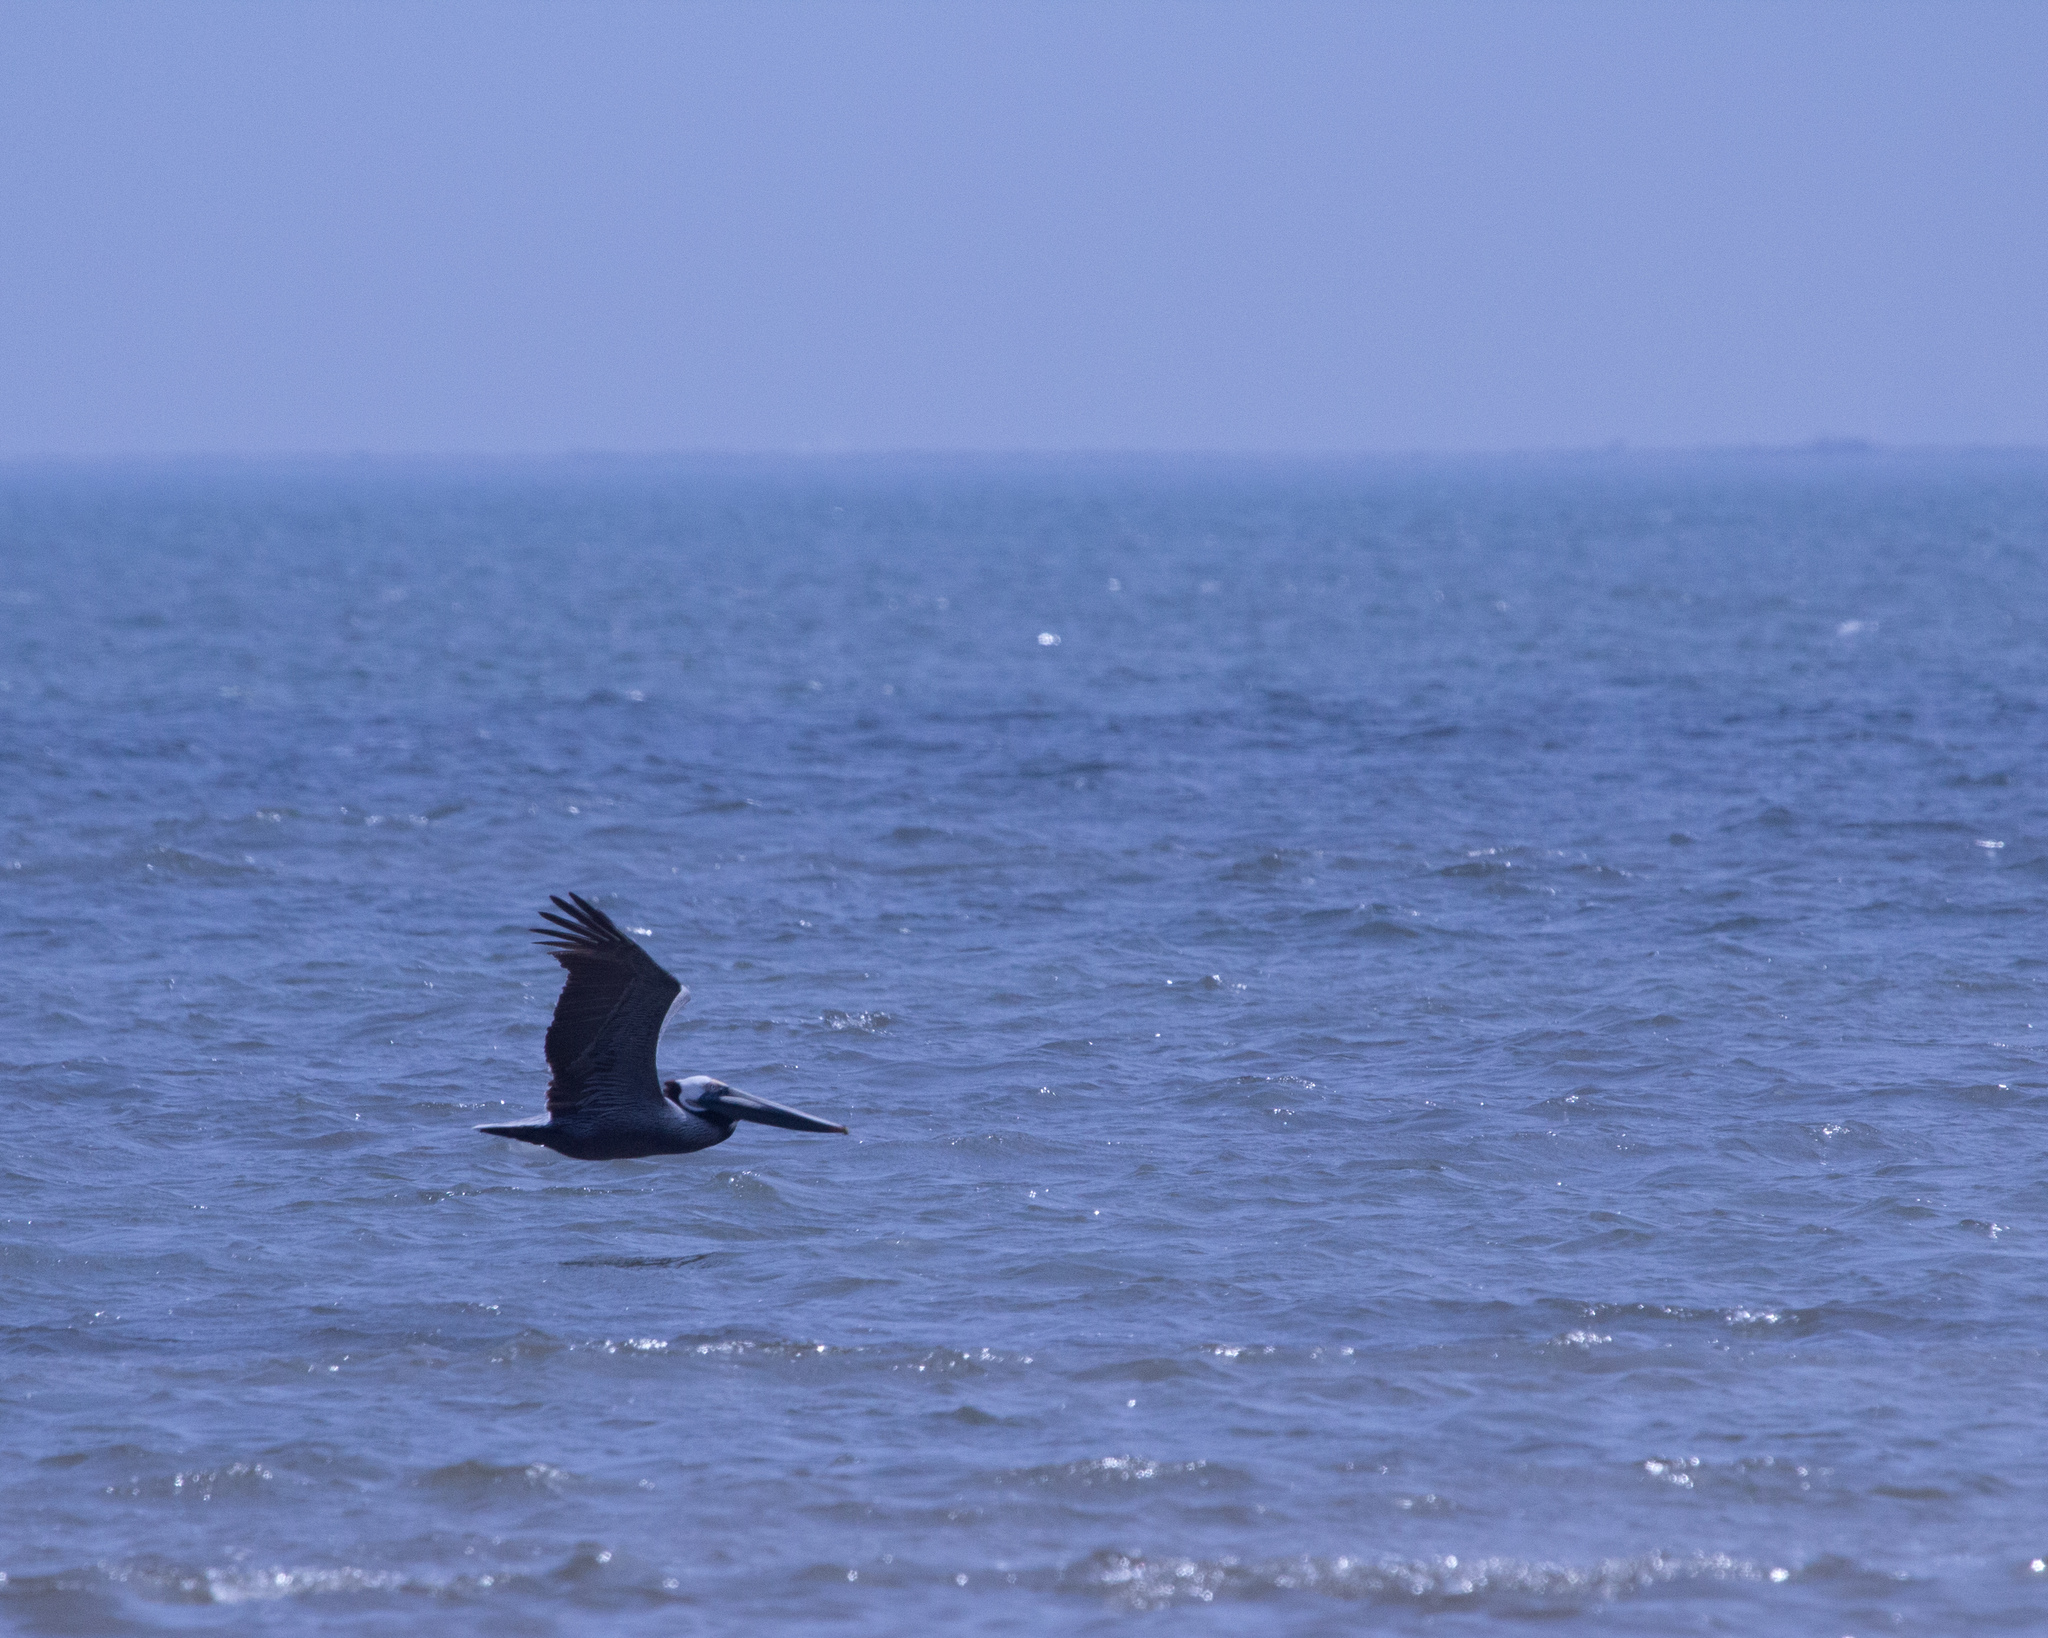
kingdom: Animalia
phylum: Chordata
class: Aves
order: Pelecaniformes
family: Pelecanidae
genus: Pelecanus
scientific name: Pelecanus occidentalis
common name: Brown pelican
